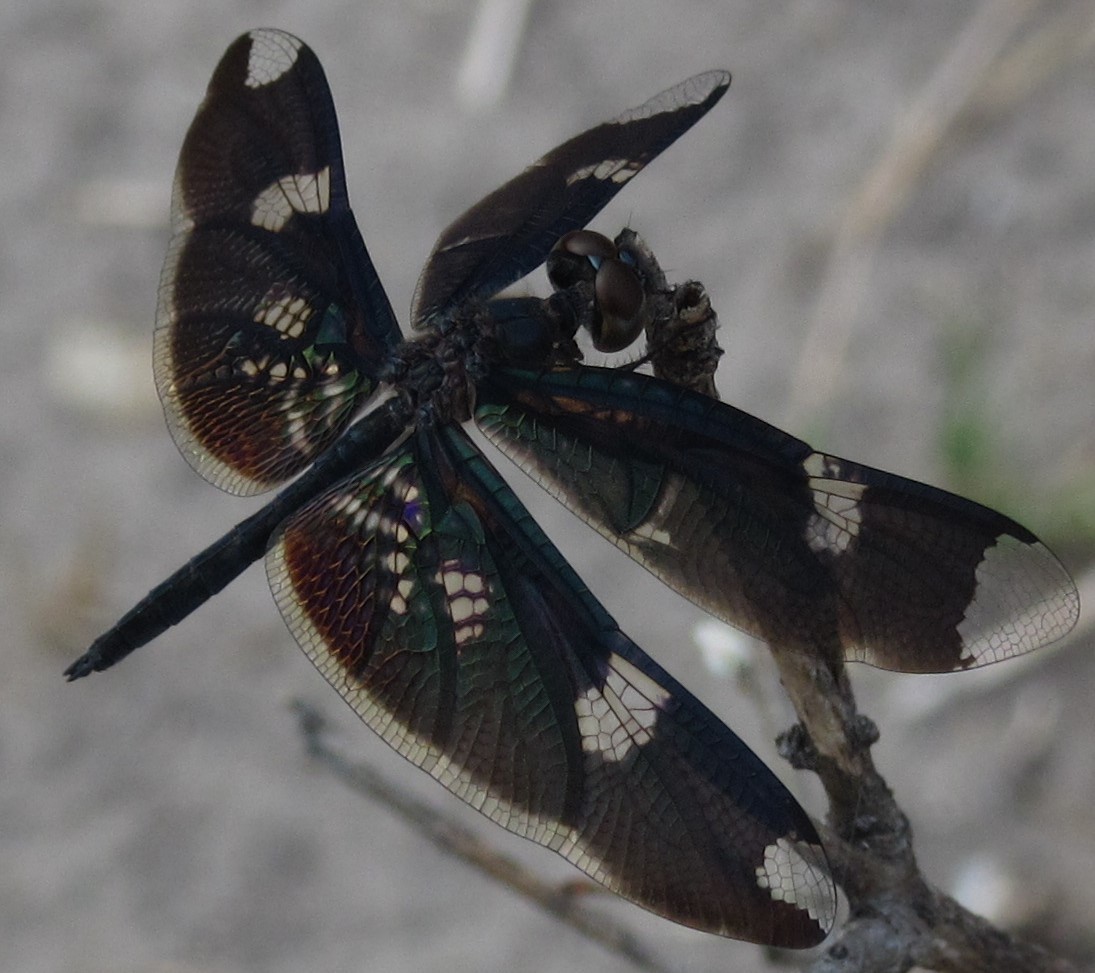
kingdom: Animalia
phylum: Arthropoda
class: Insecta
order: Odonata
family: Libellulidae
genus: Rhyothemis
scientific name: Rhyothemis fenestrina
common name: Skylight flutterer
